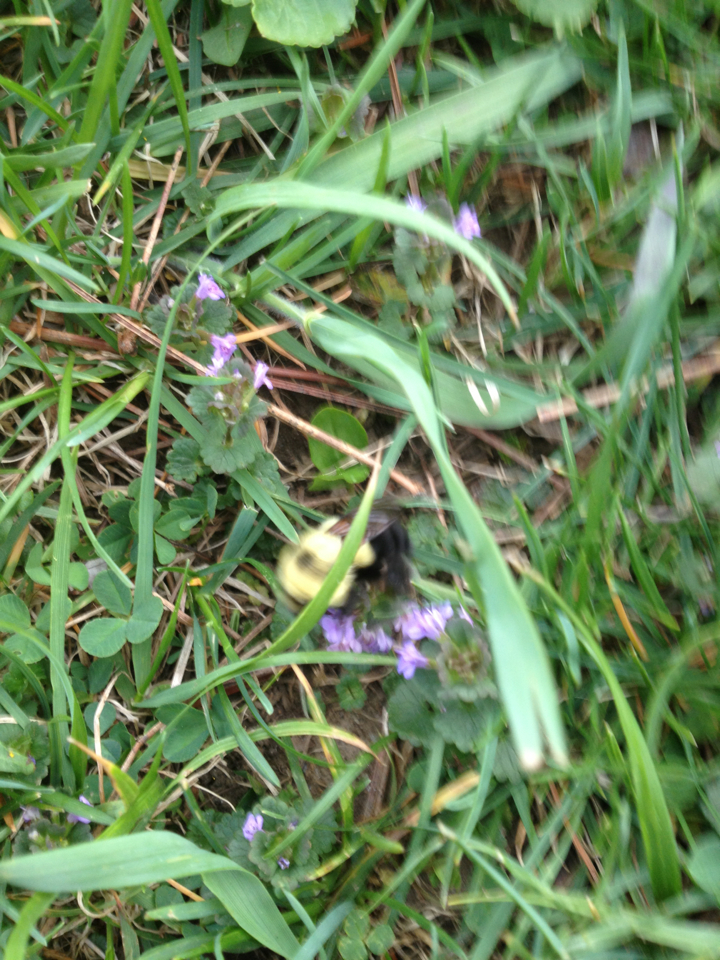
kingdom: Animalia
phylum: Arthropoda
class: Insecta
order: Hymenoptera
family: Apidae
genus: Bombus
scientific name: Bombus bimaculatus
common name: Two-spotted bumble bee
